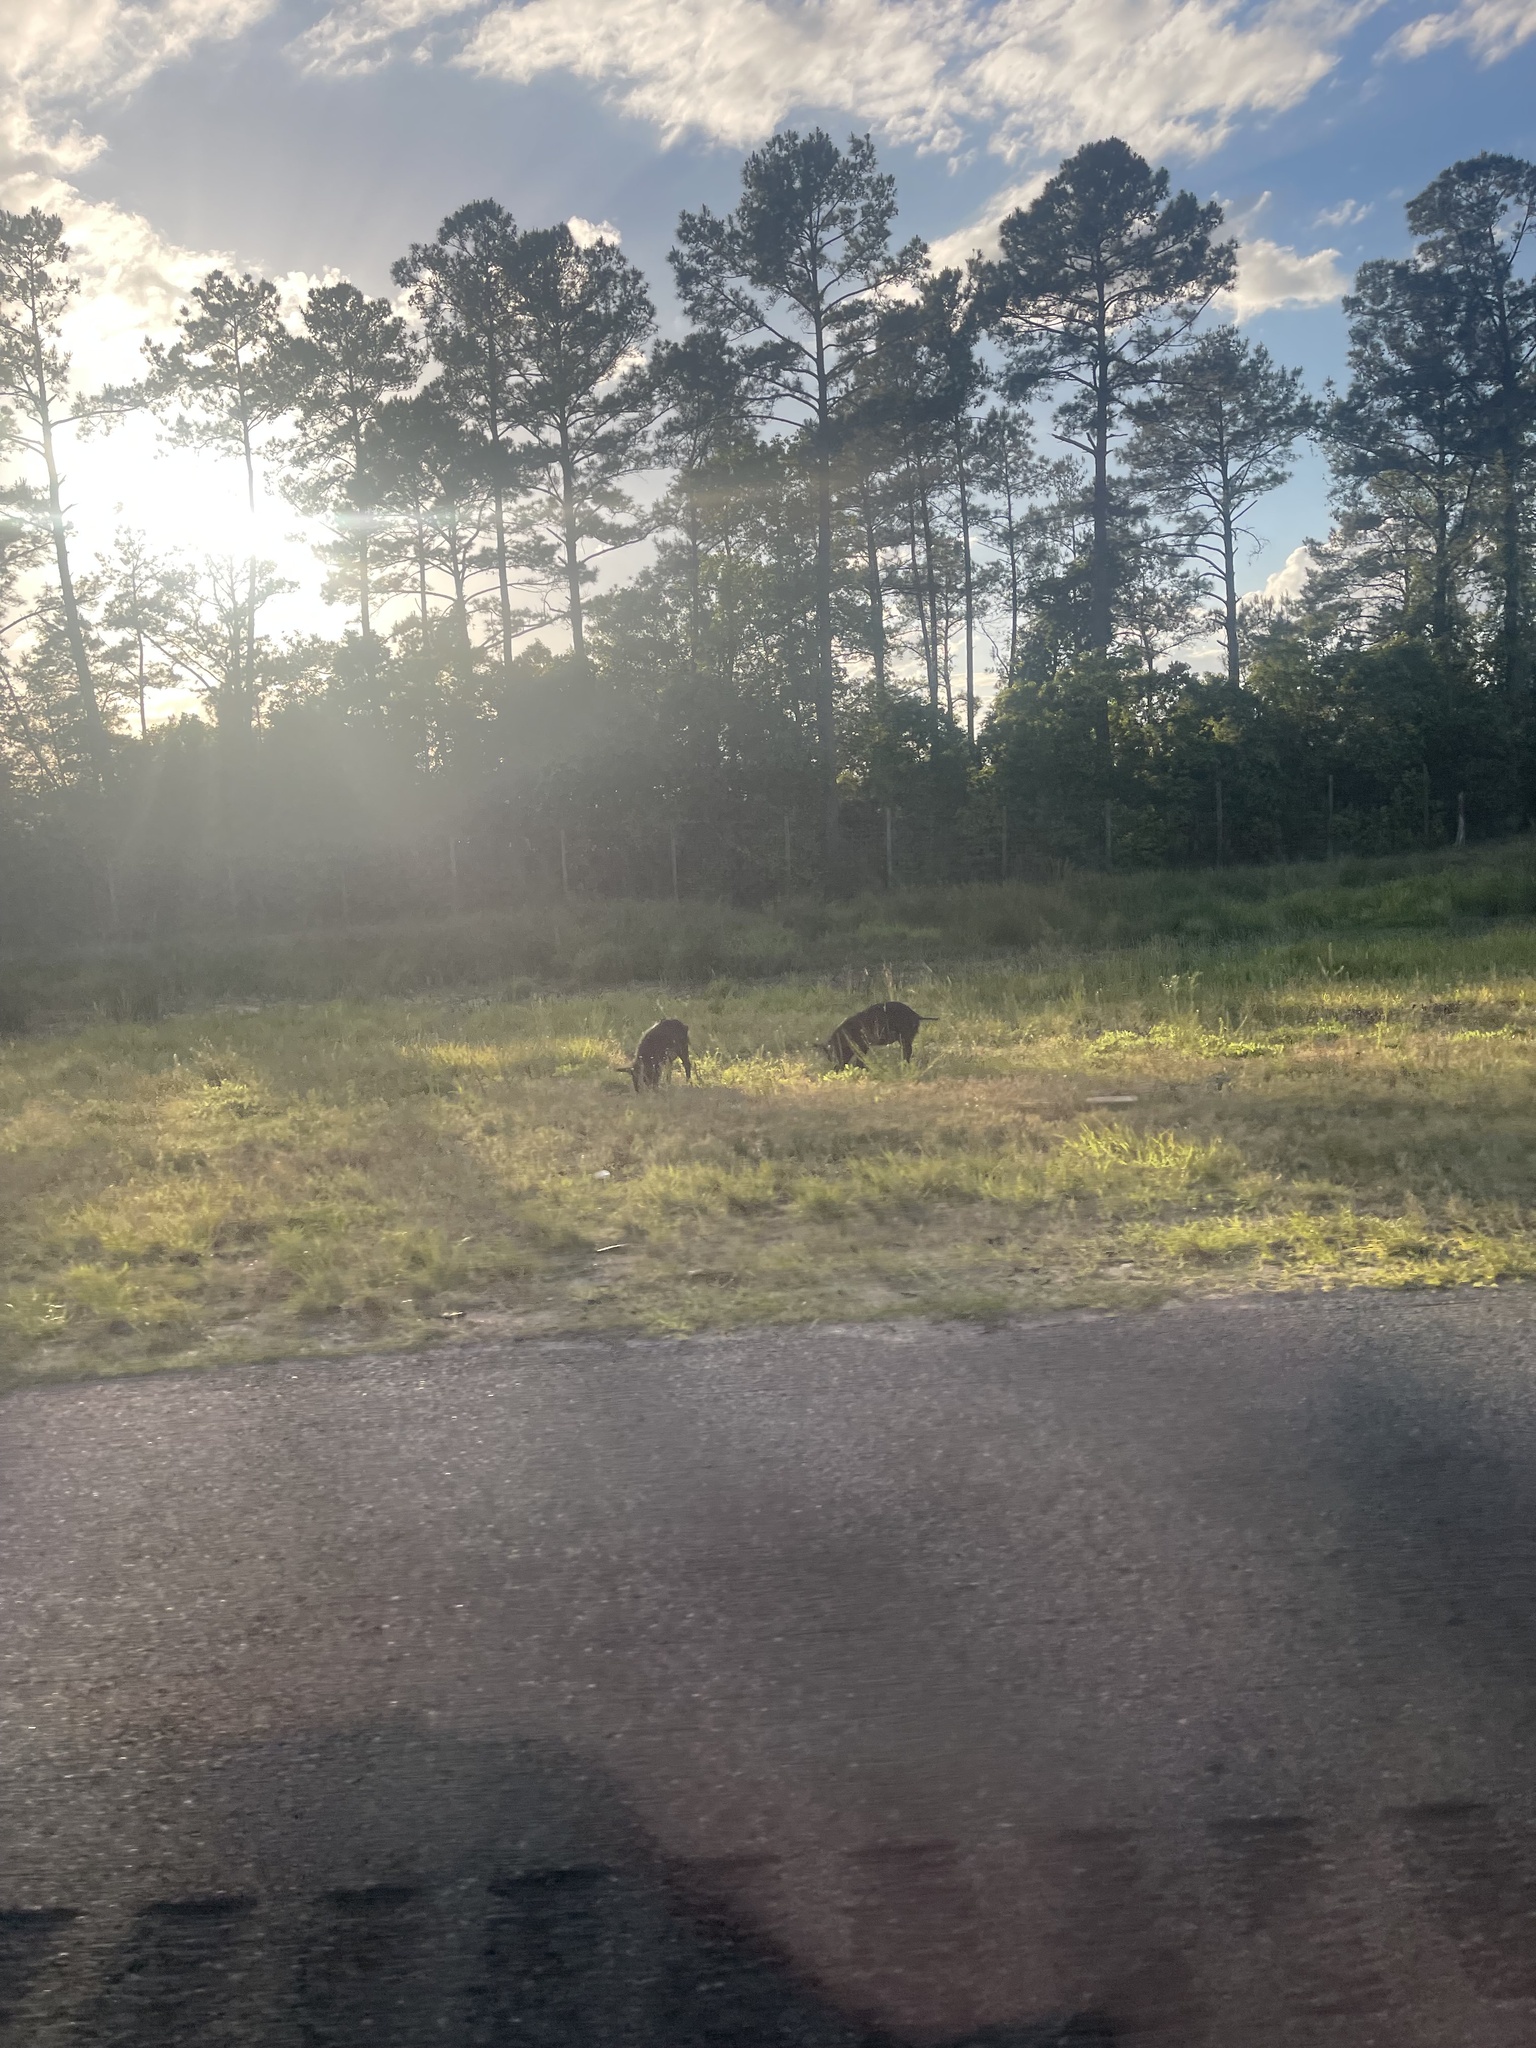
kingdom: Animalia
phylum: Chordata
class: Mammalia
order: Artiodactyla
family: Suidae
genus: Sus
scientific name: Sus scrofa
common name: Wild boar
